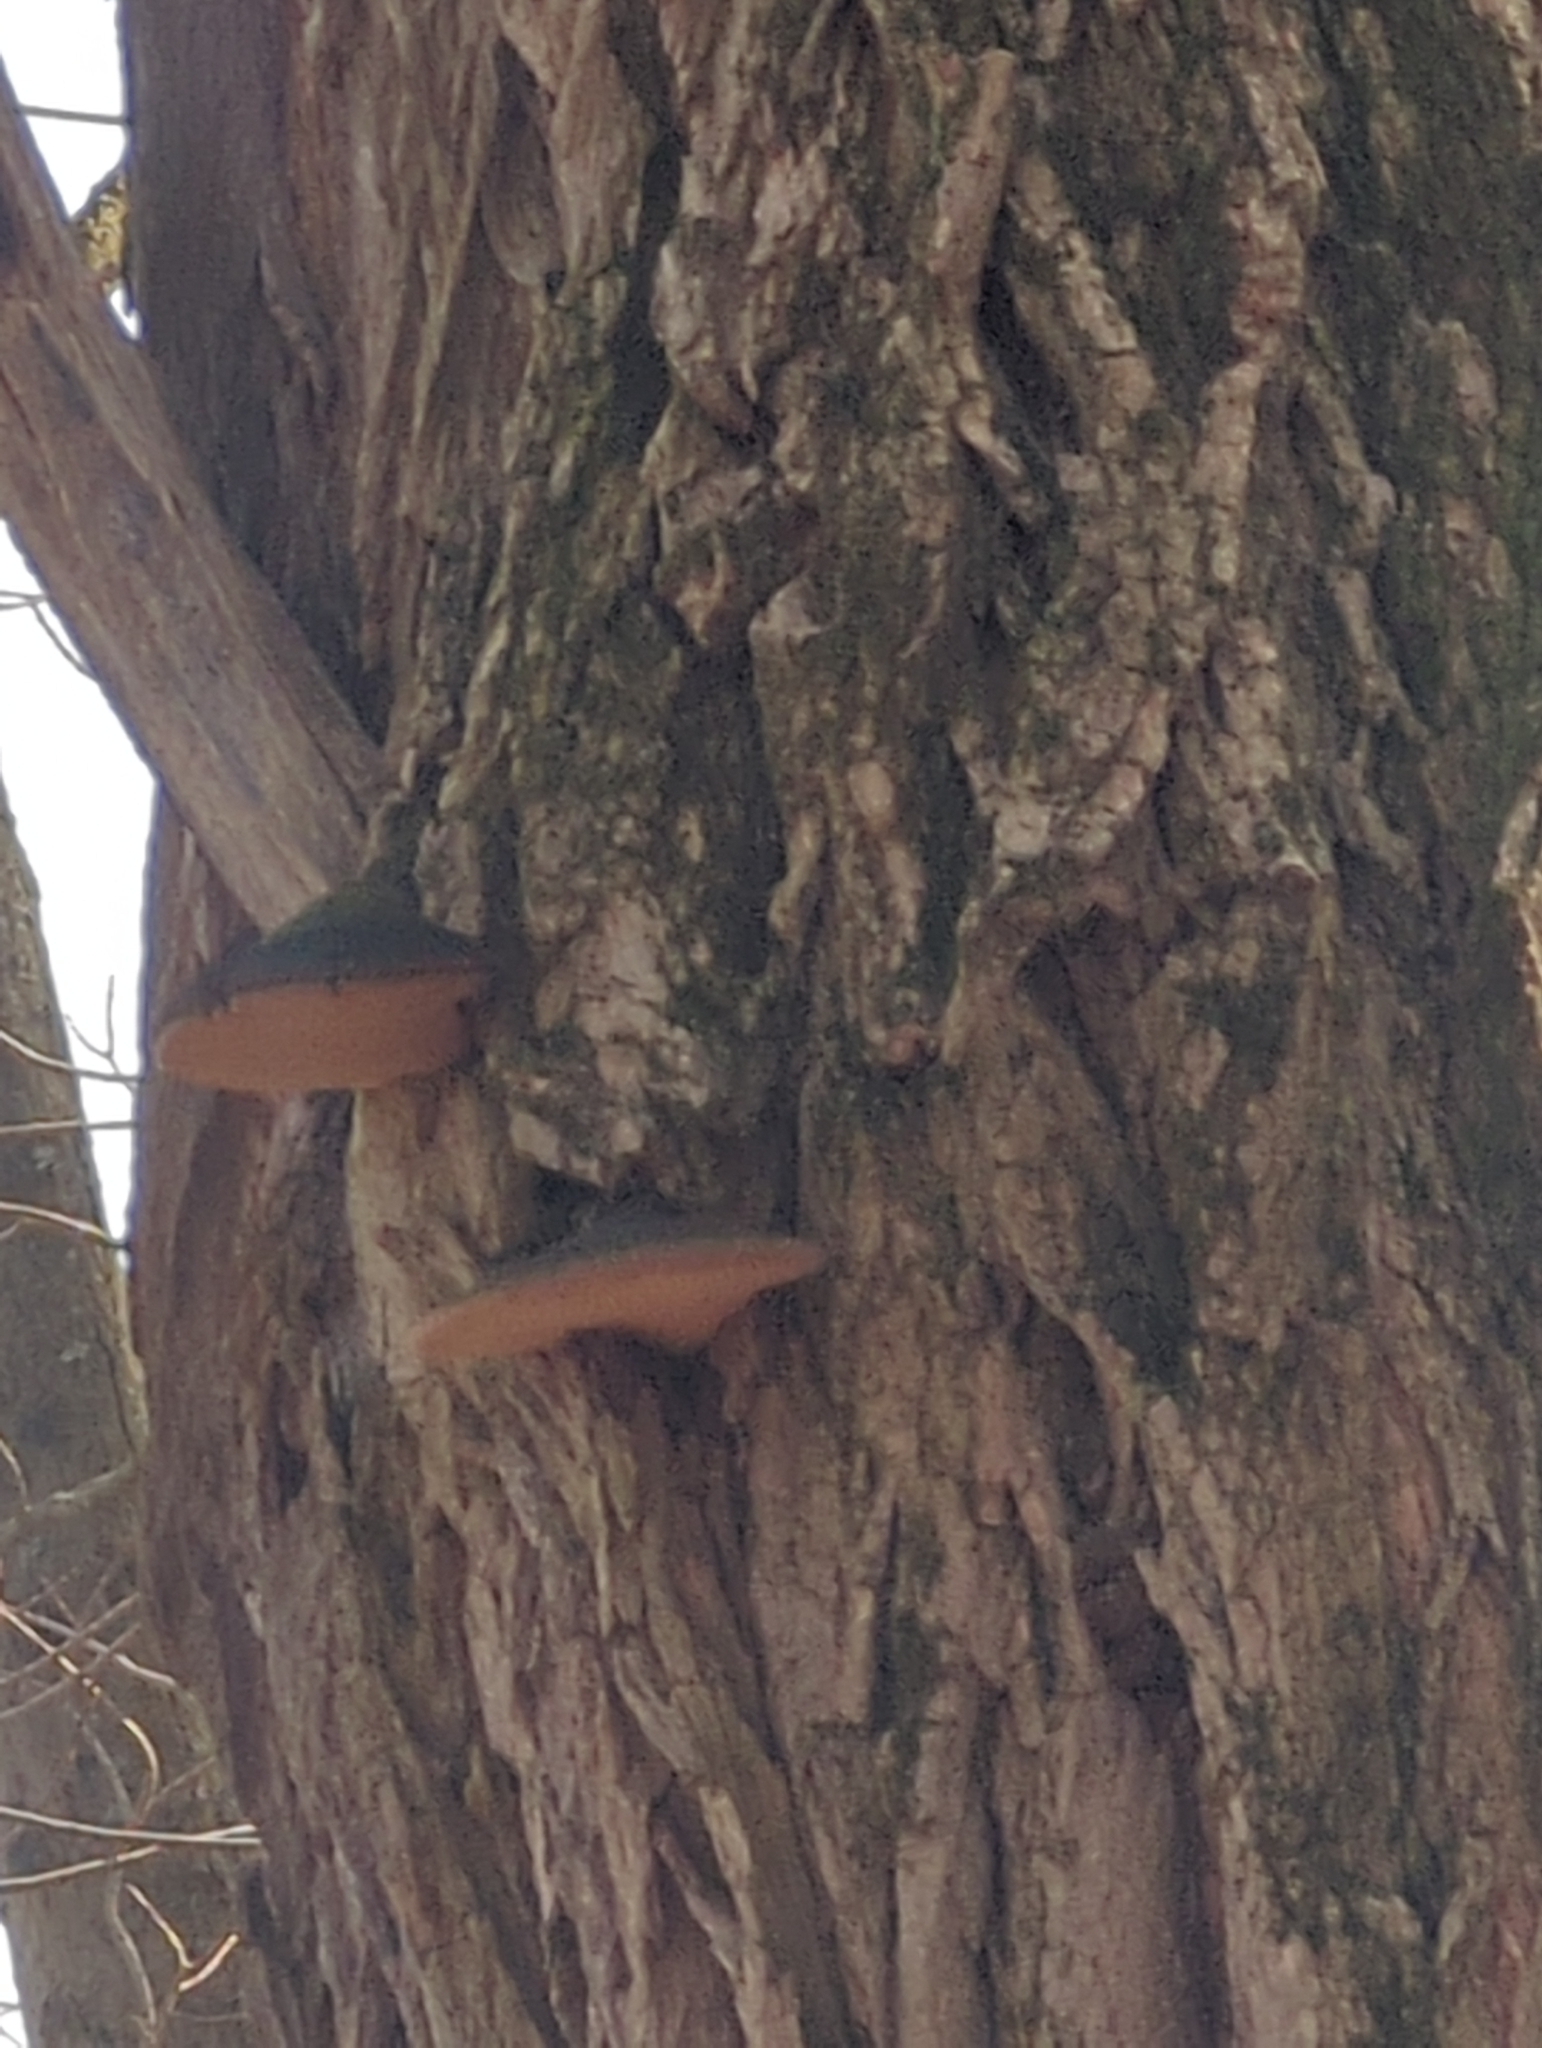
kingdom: Fungi
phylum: Basidiomycota
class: Agaricomycetes
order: Hymenochaetales
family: Hymenochaetaceae
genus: Phellinus
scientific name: Phellinus robiniae
